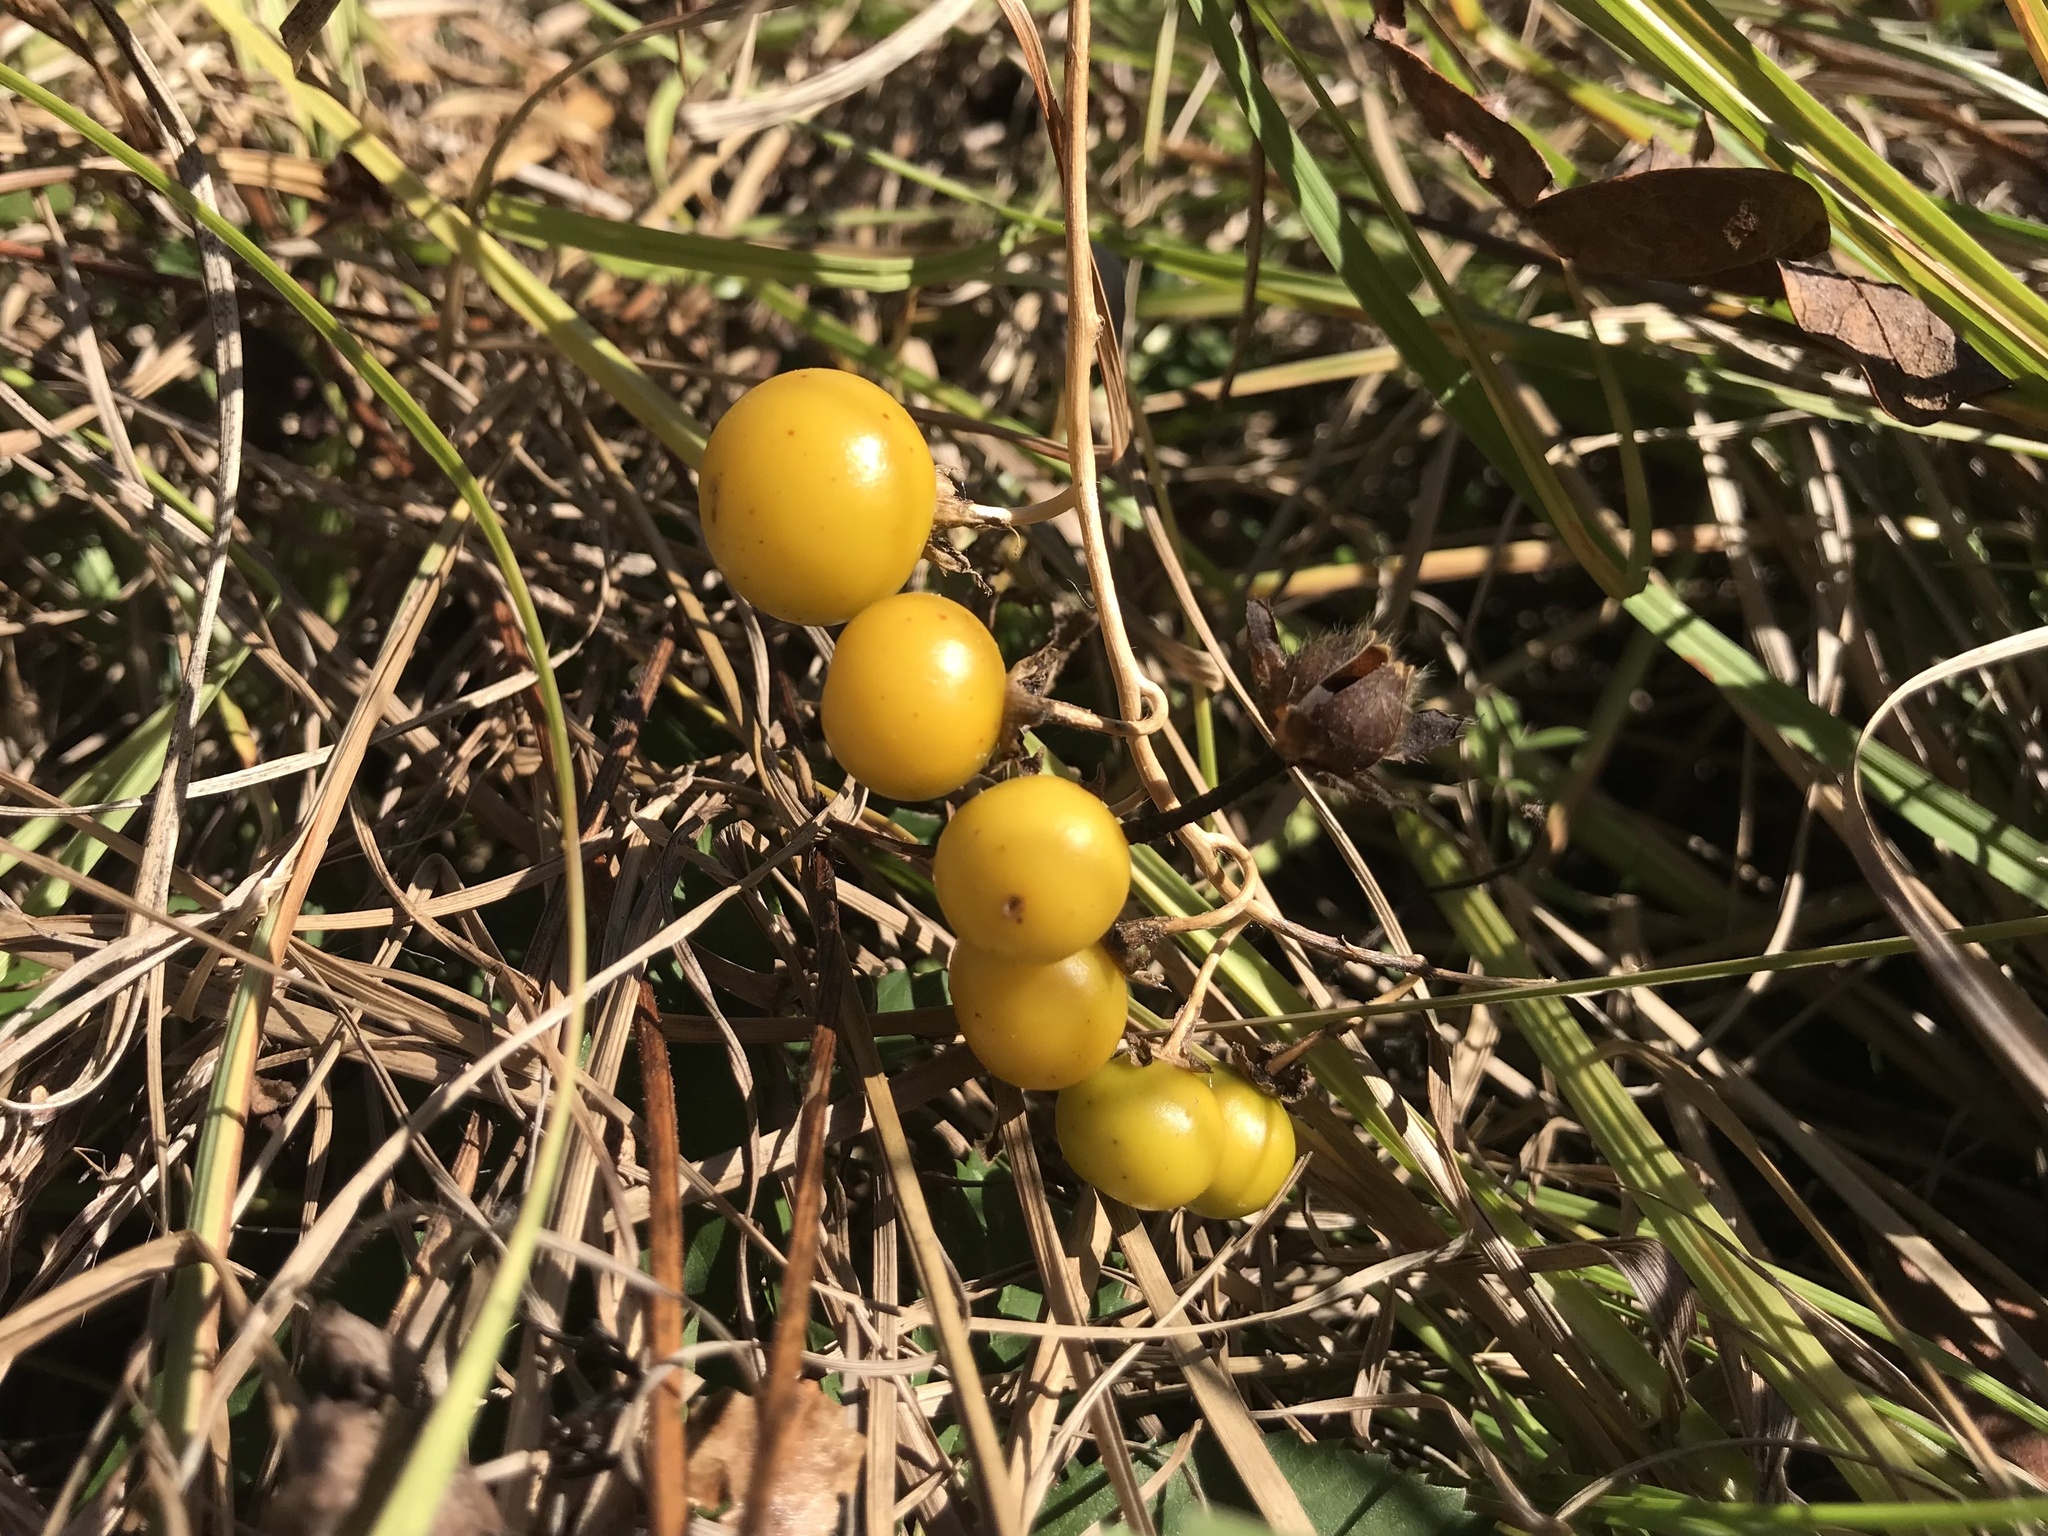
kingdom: Plantae
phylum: Tracheophyta
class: Magnoliopsida
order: Solanales
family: Solanaceae
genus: Solanum
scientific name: Solanum carolinense
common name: Horse-nettle
